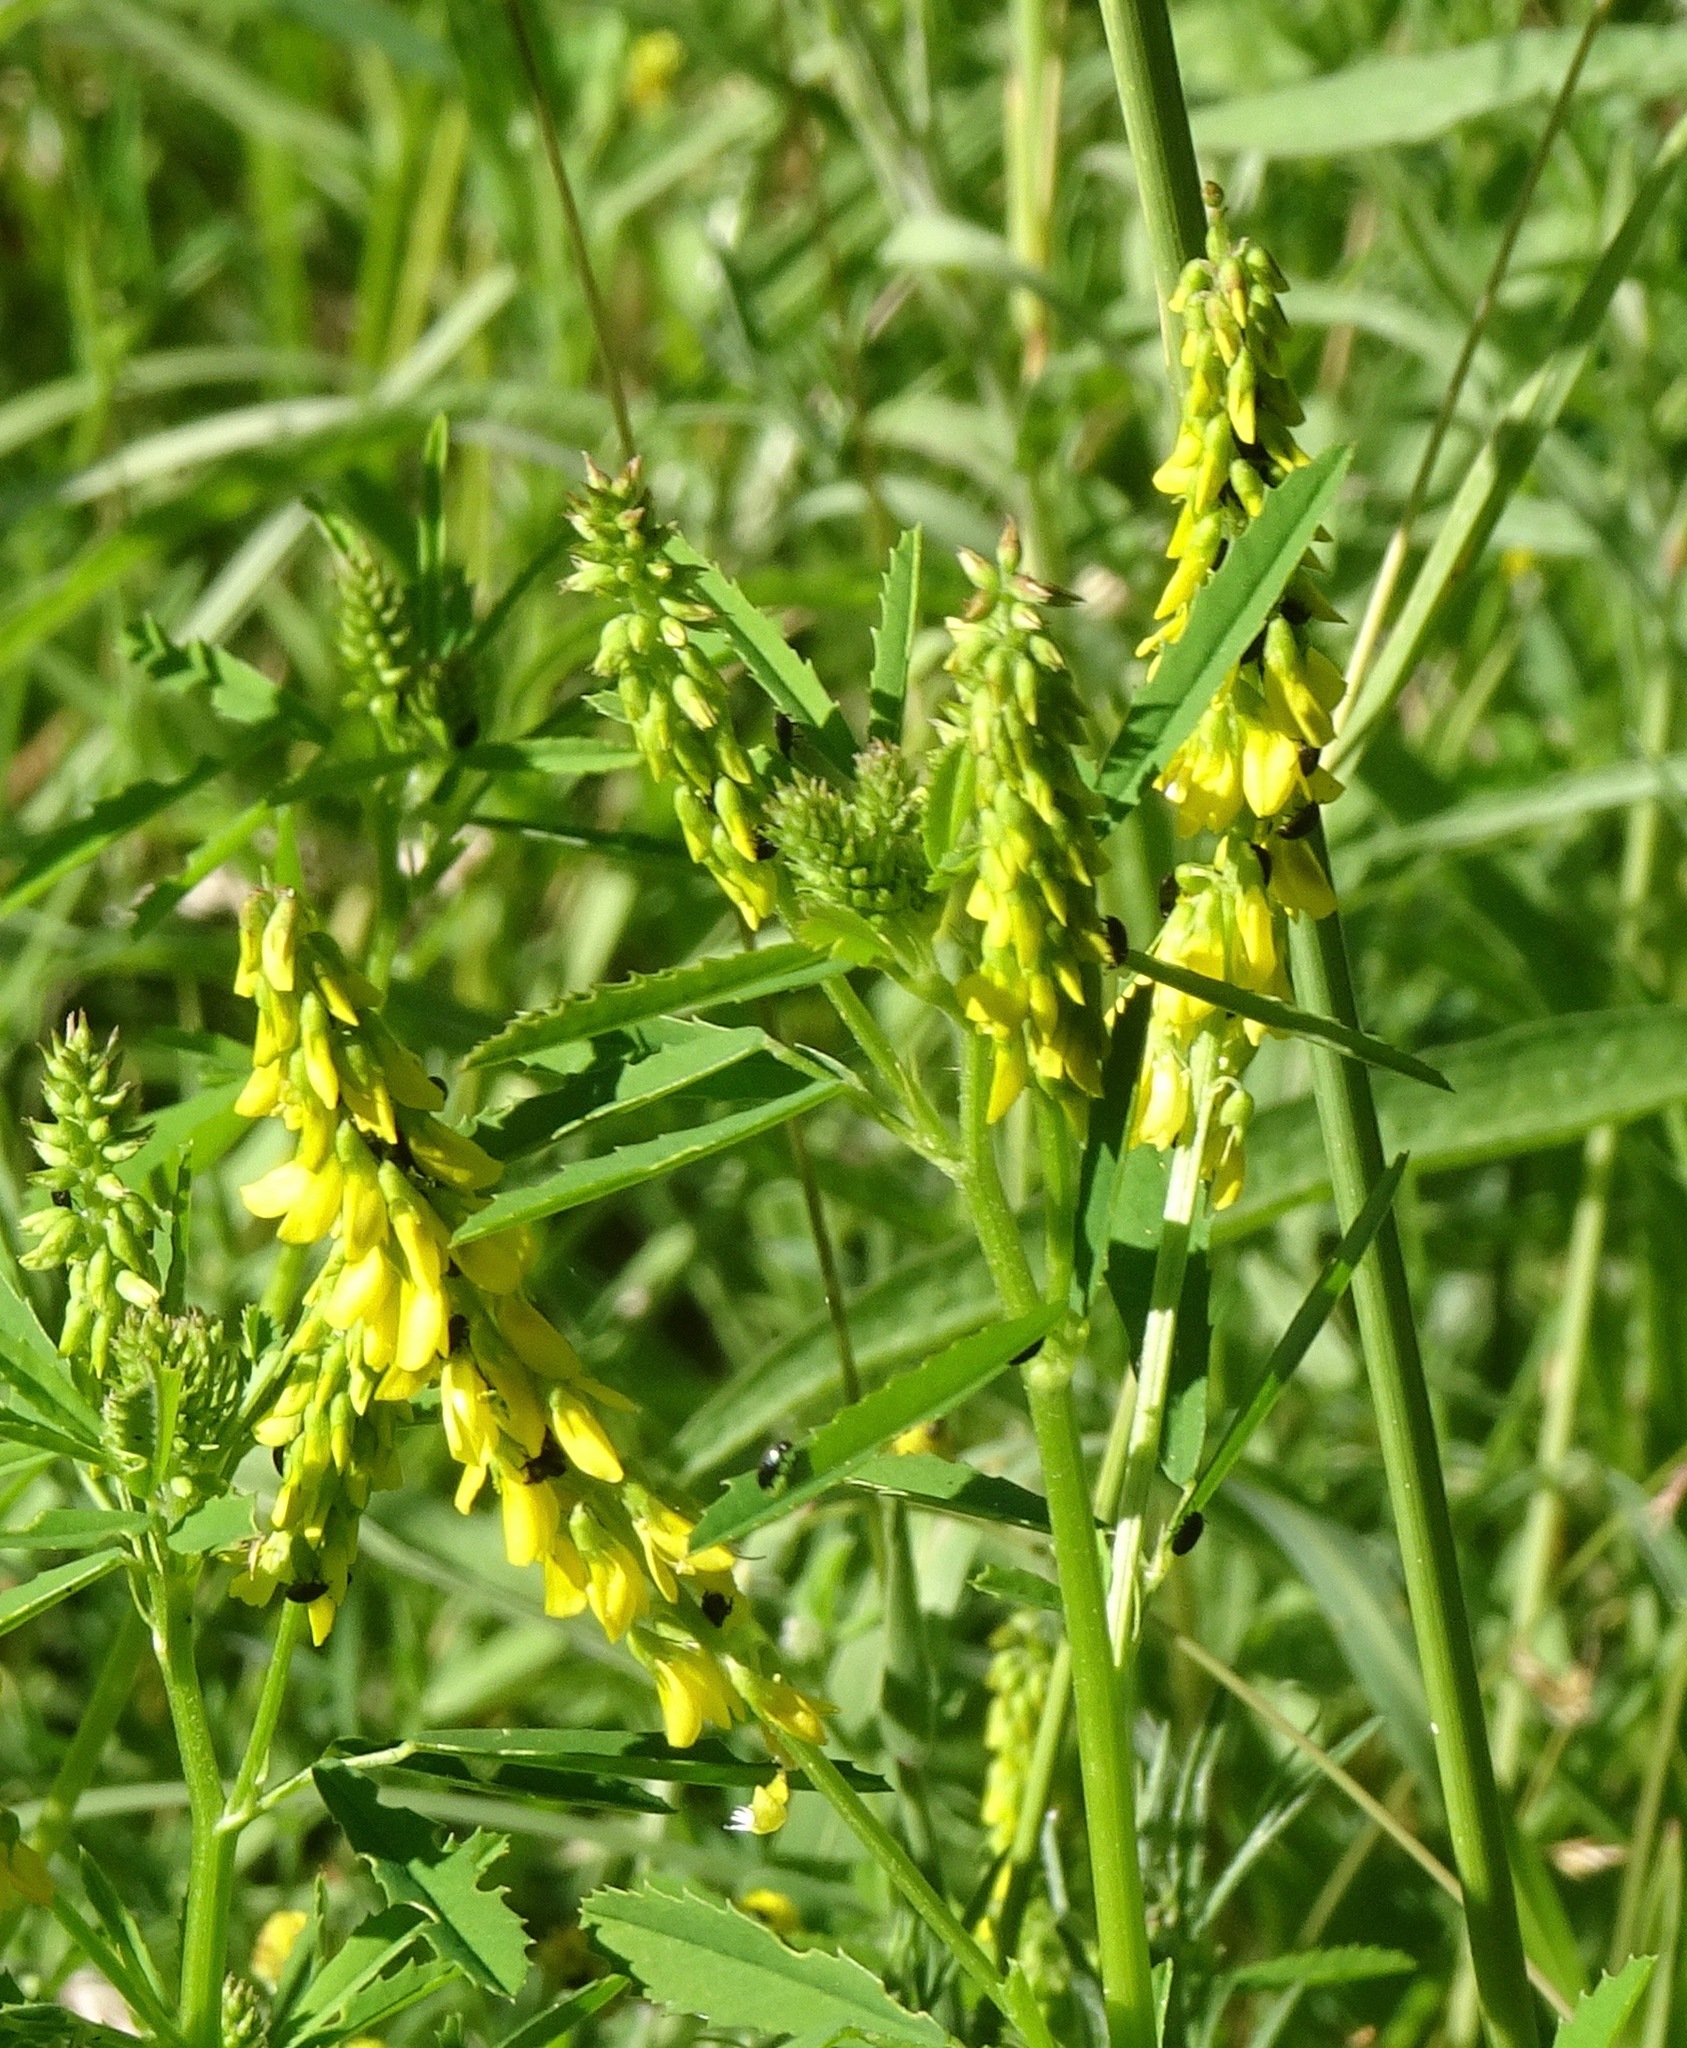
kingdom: Plantae
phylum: Tracheophyta
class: Magnoliopsida
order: Fabales
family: Fabaceae
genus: Melilotus
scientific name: Melilotus officinalis
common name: Sweetclover
